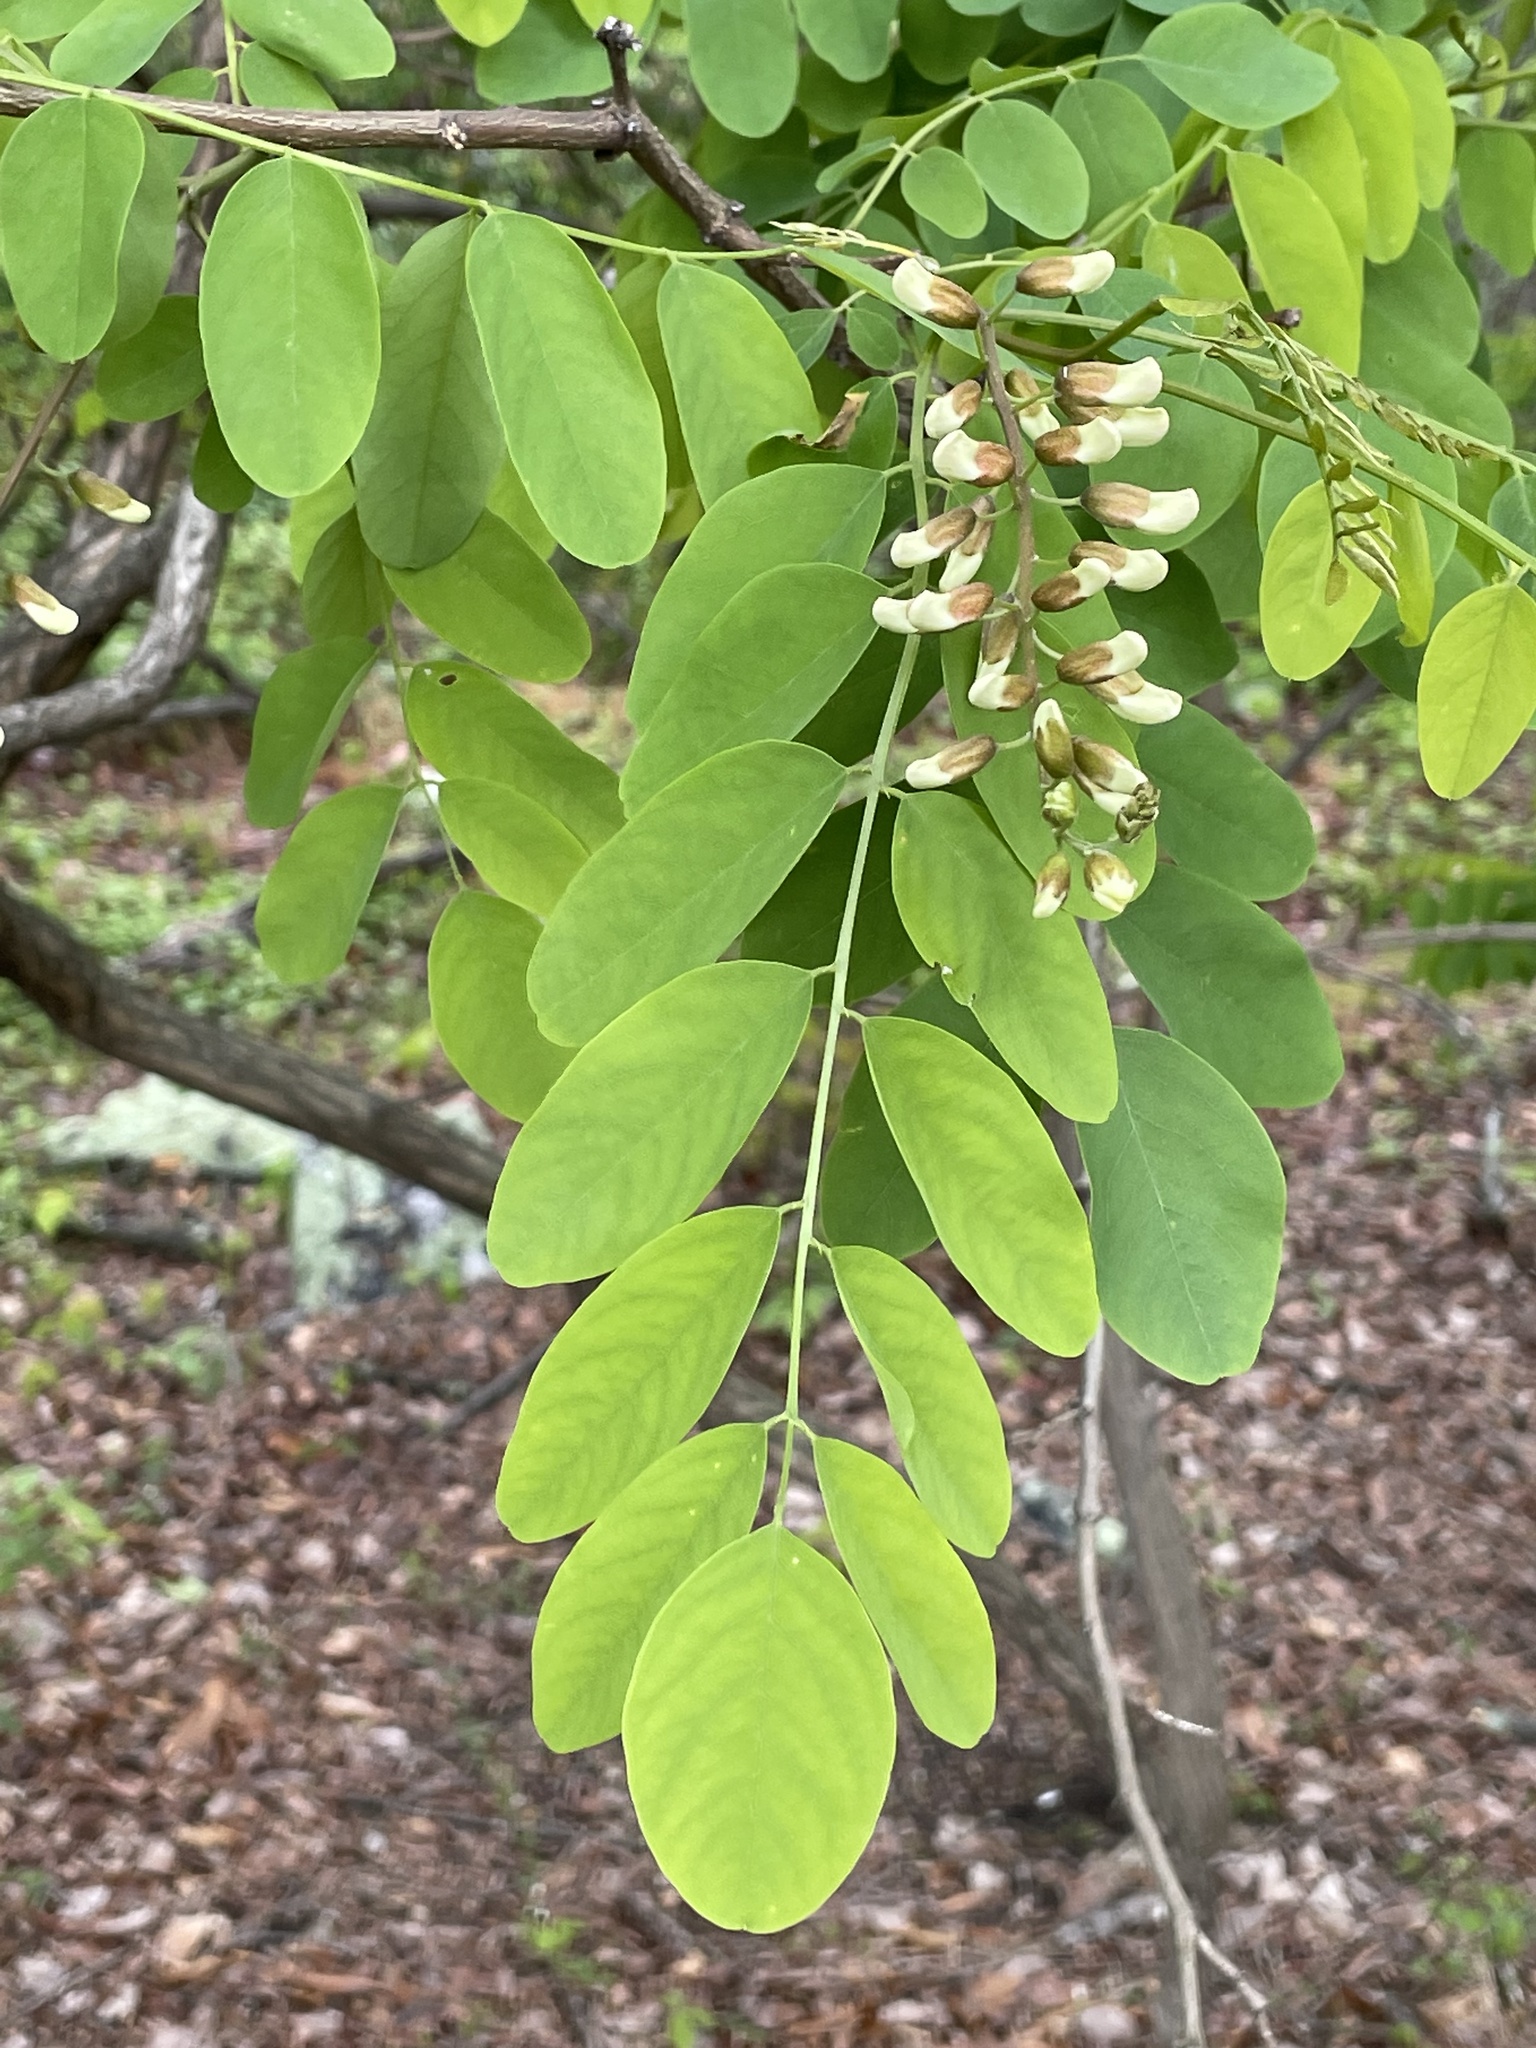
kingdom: Plantae
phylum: Tracheophyta
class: Magnoliopsida
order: Fabales
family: Fabaceae
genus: Robinia
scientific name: Robinia pseudoacacia
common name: Black locust
